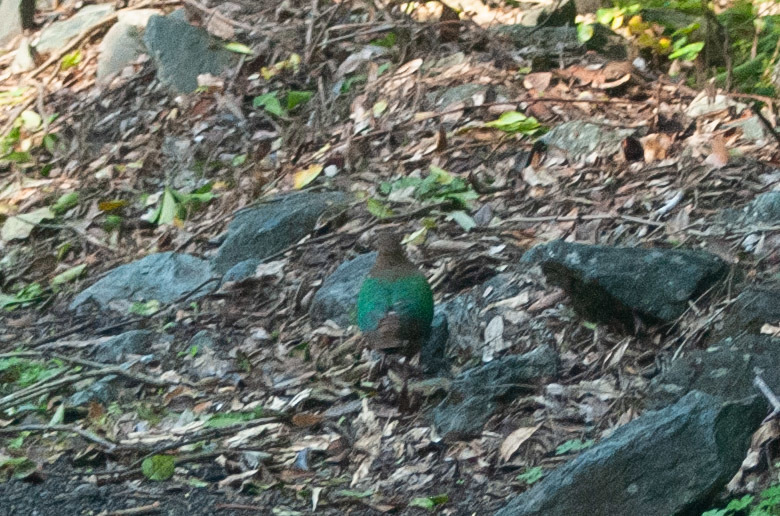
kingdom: Animalia
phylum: Chordata
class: Aves
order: Columbiformes
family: Columbidae
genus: Chalcophaps
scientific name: Chalcophaps longirostris
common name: Pacific emerald dove
